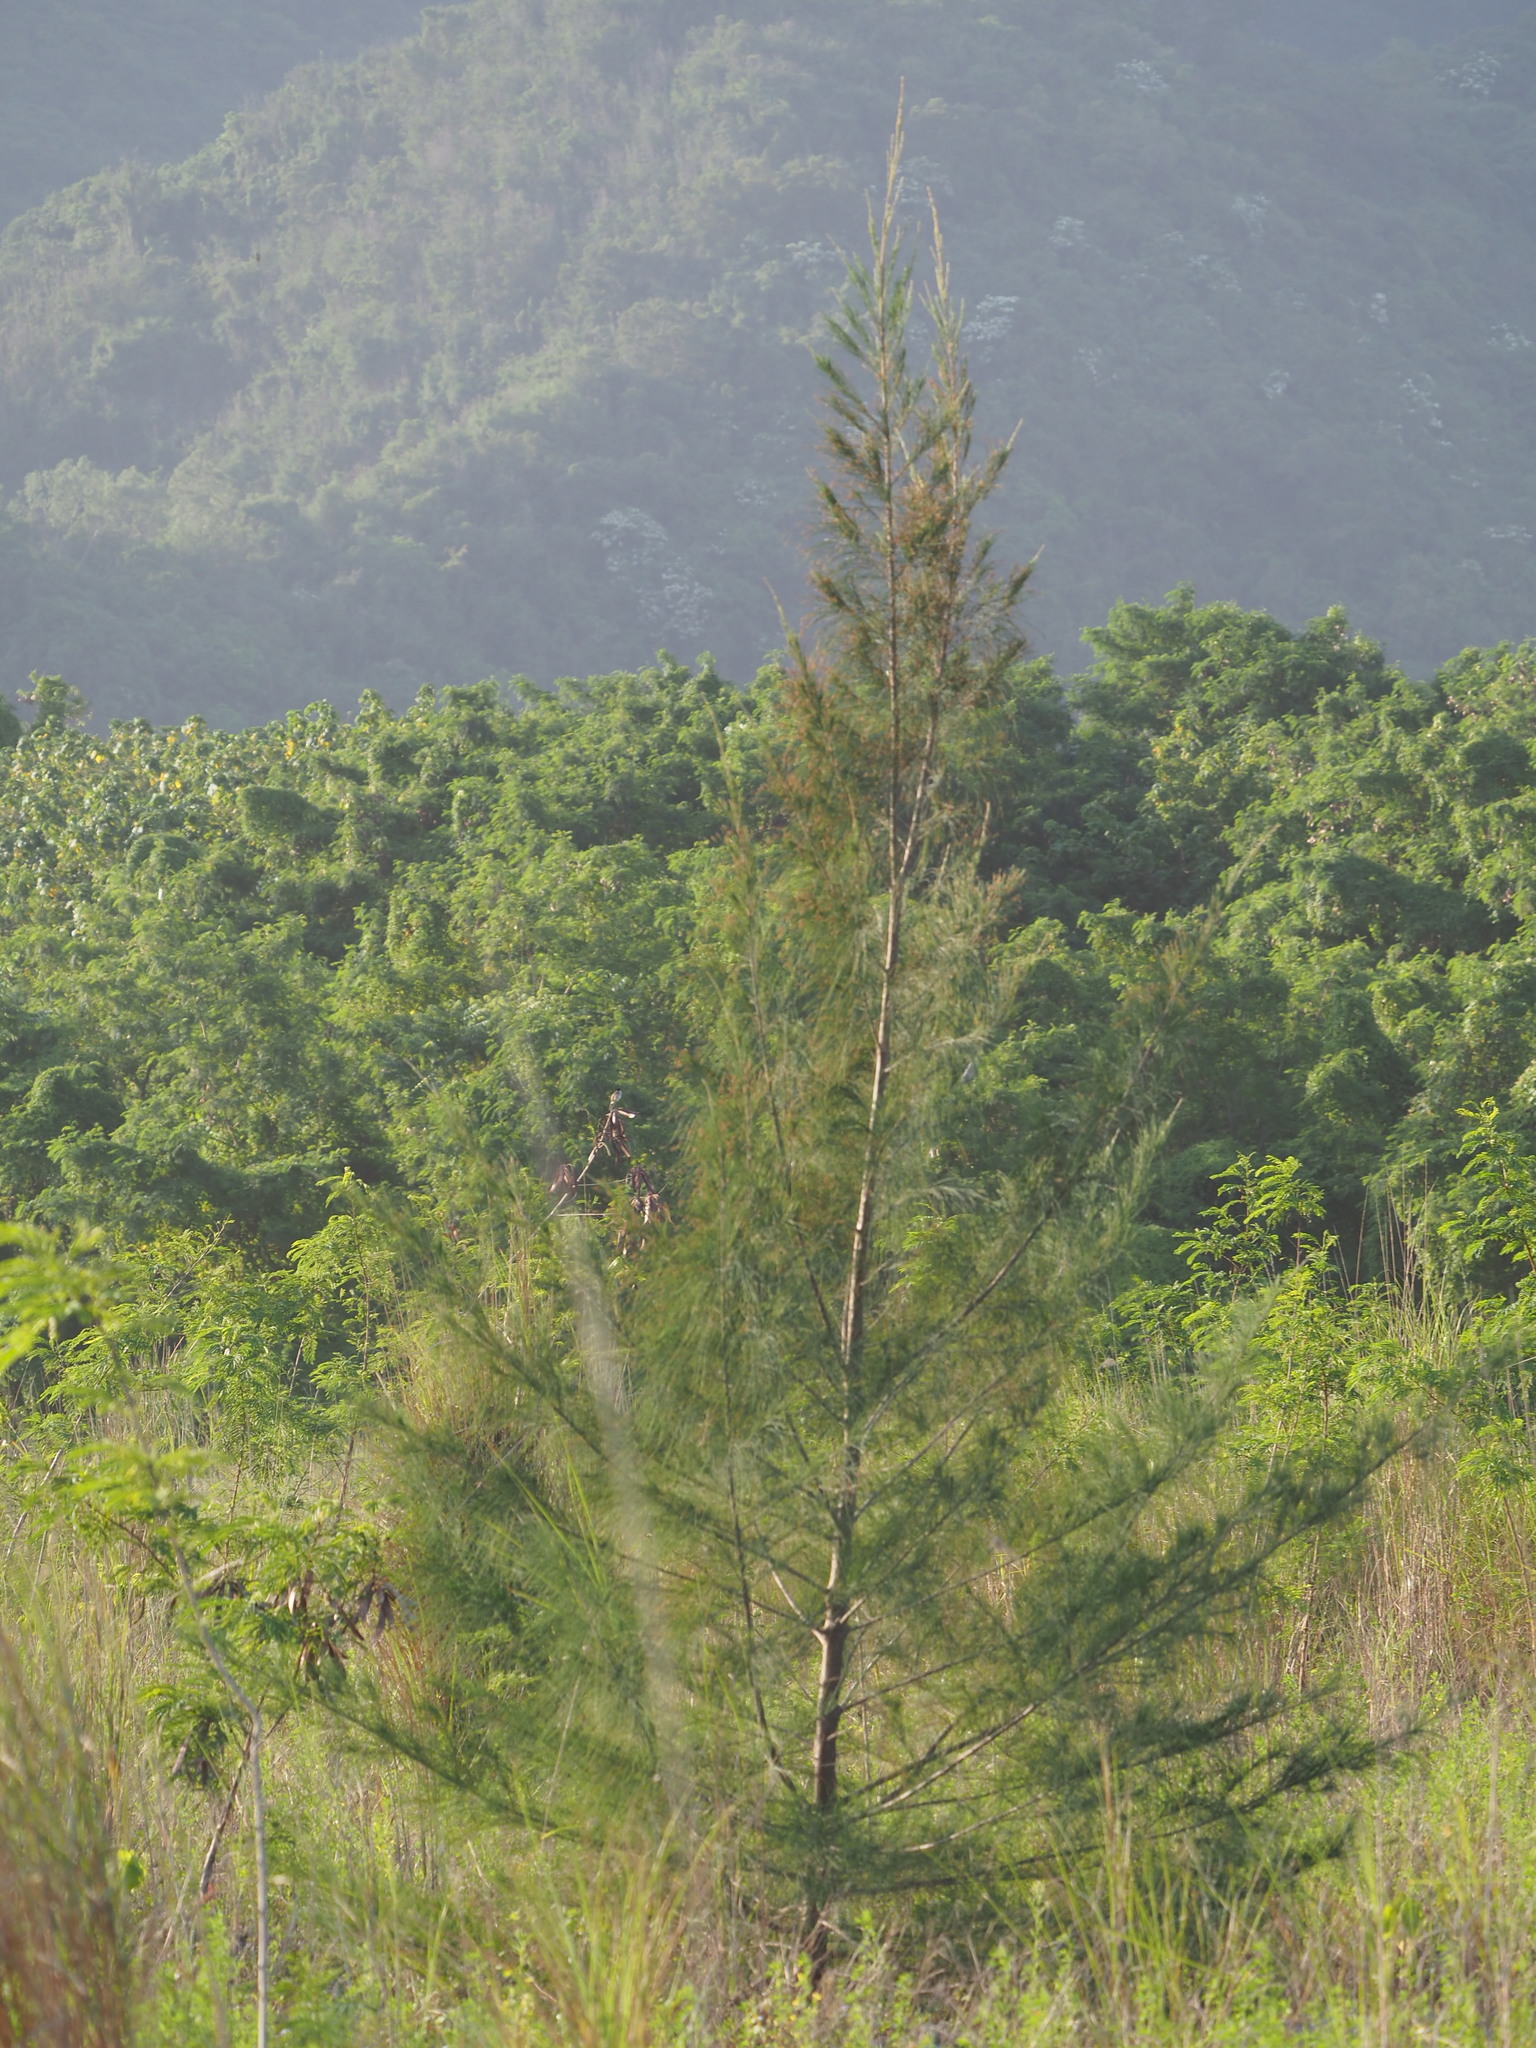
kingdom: Plantae
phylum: Tracheophyta
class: Magnoliopsida
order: Fagales
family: Casuarinaceae
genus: Casuarina
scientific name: Casuarina equisetifolia
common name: Beach sheoak
